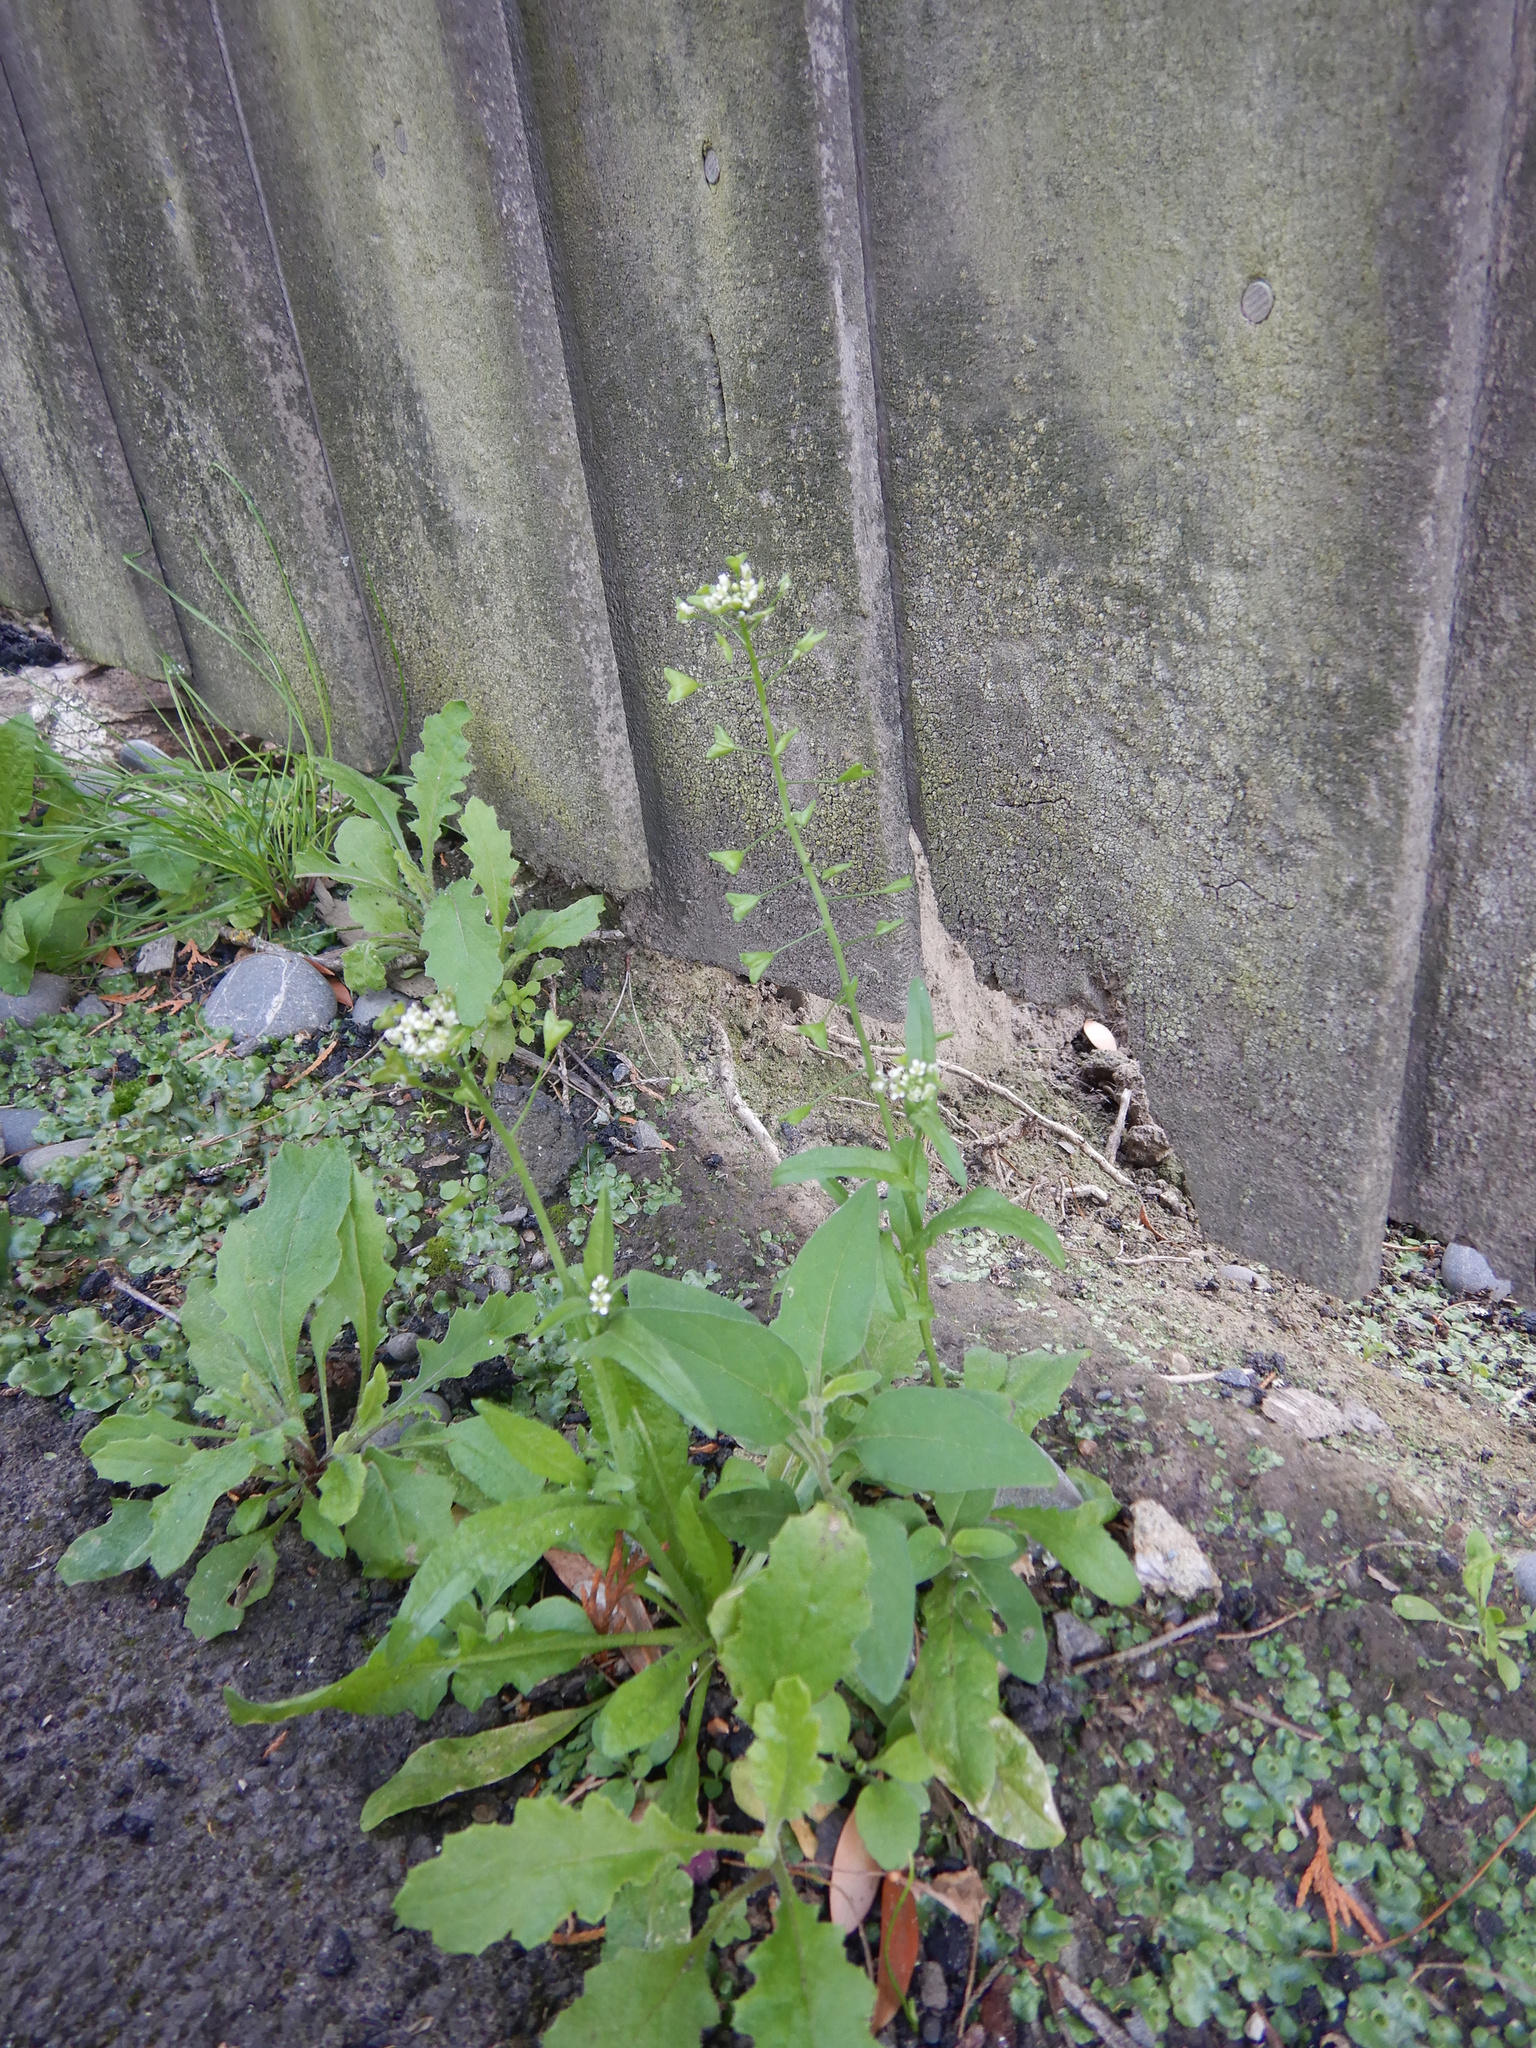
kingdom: Plantae
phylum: Tracheophyta
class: Magnoliopsida
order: Brassicales
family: Brassicaceae
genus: Capsella
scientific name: Capsella bursa-pastoris
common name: Shepherd's purse
